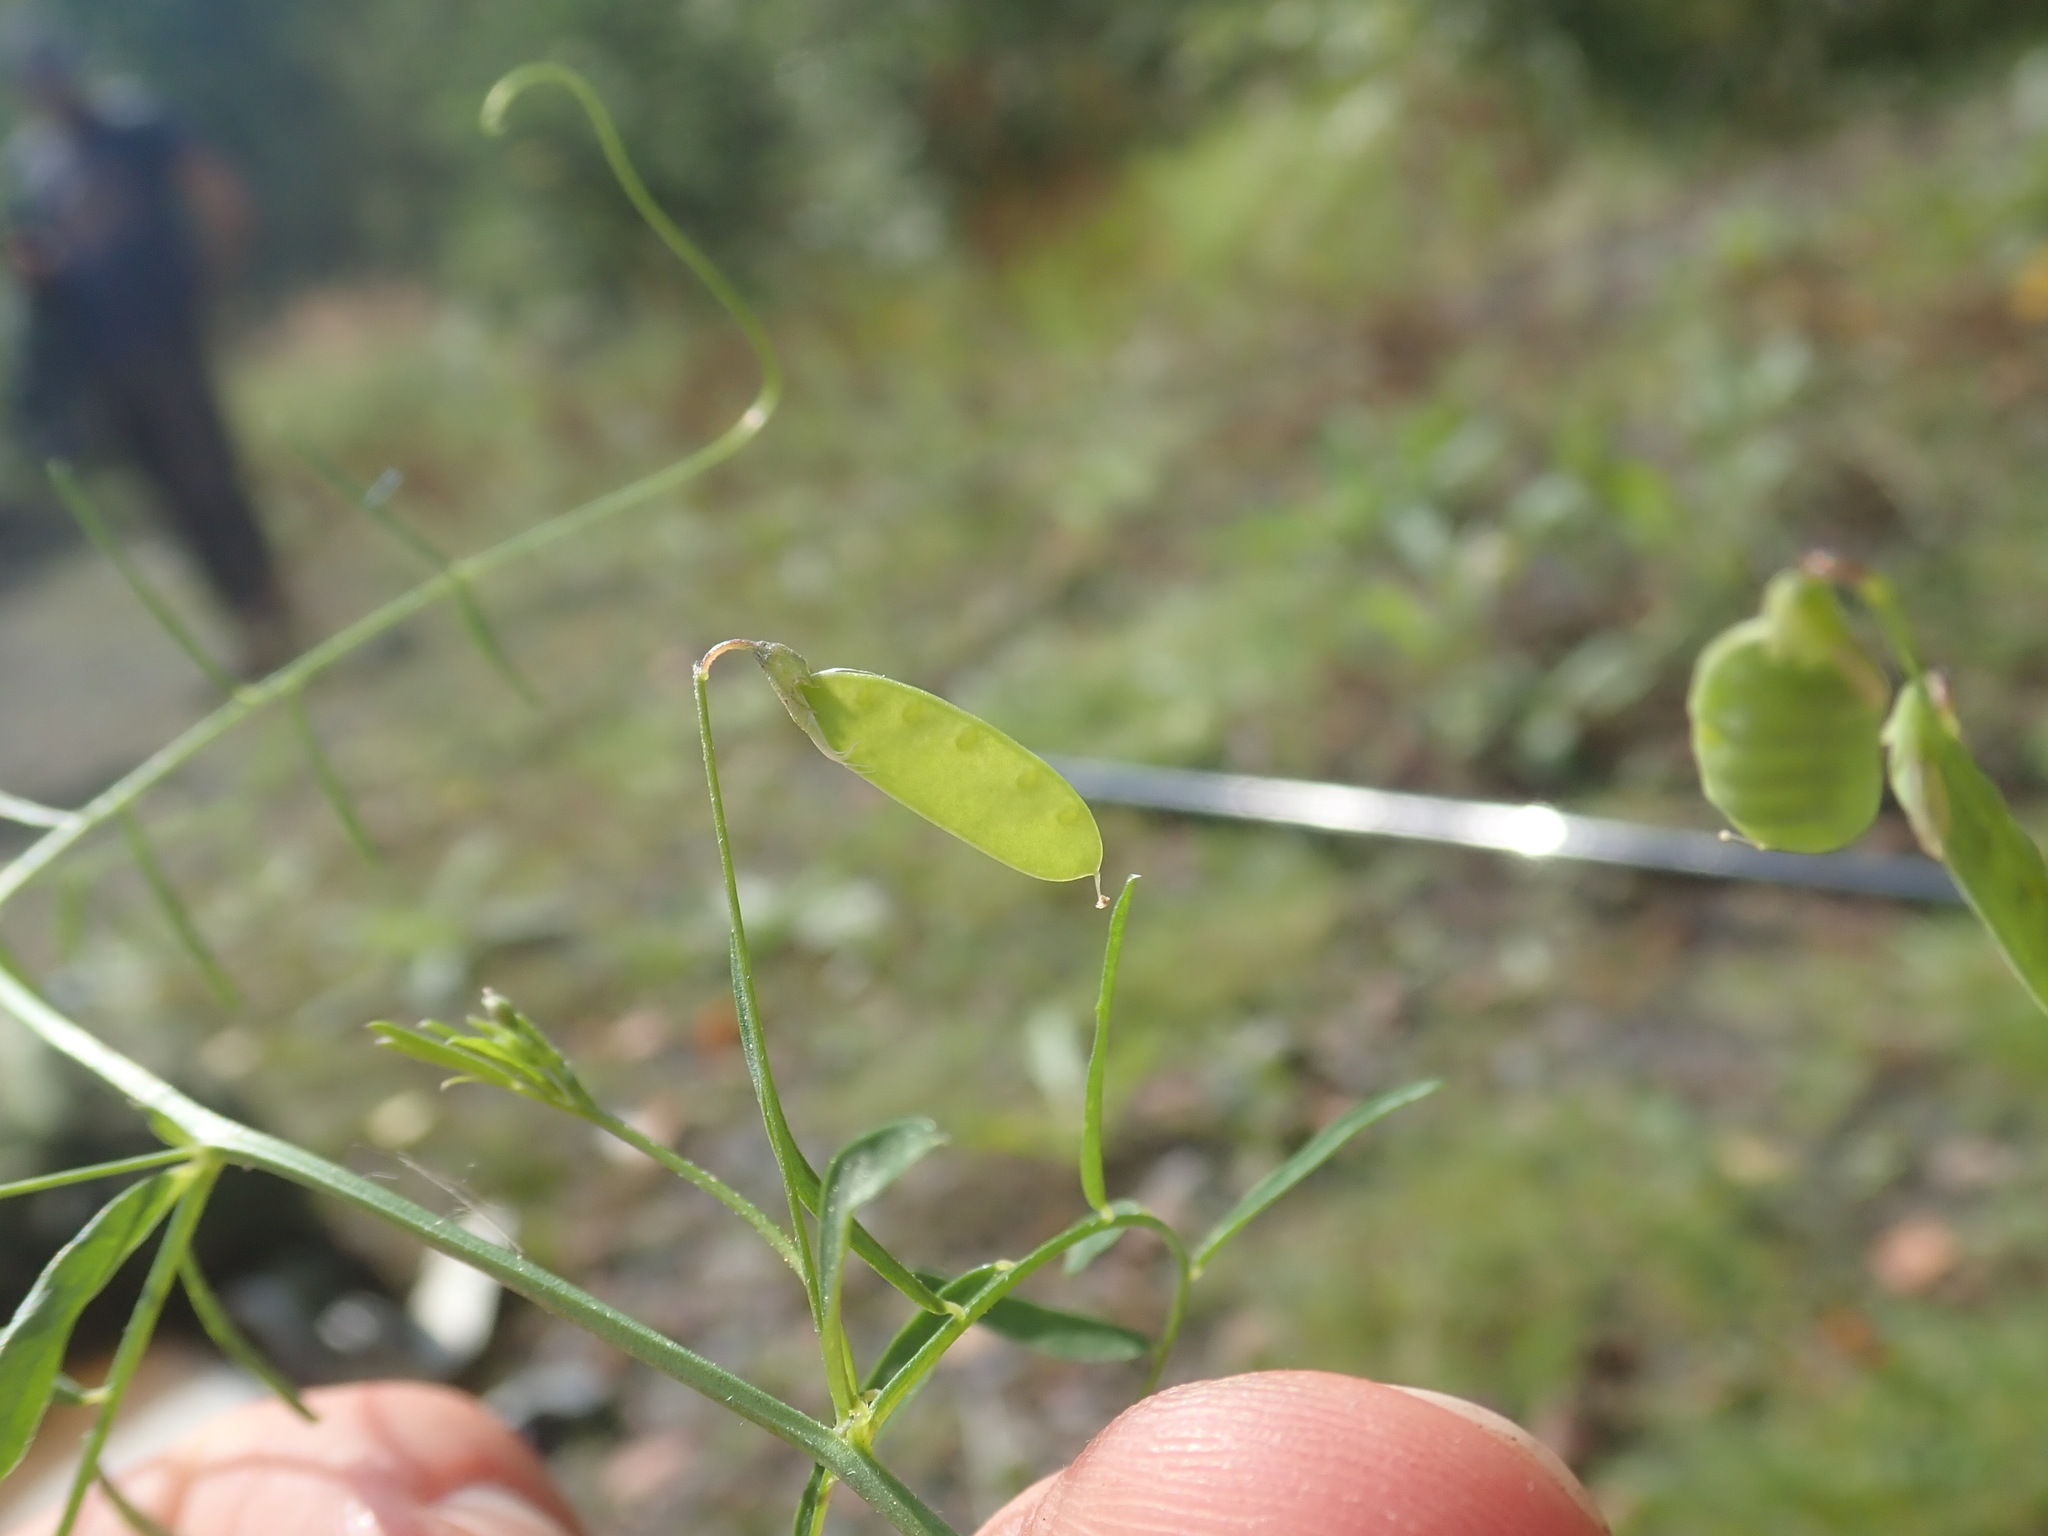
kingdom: Plantae
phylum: Tracheophyta
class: Magnoliopsida
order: Fabales
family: Fabaceae
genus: Vicia
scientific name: Vicia tetrasperma
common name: Smooth tare
